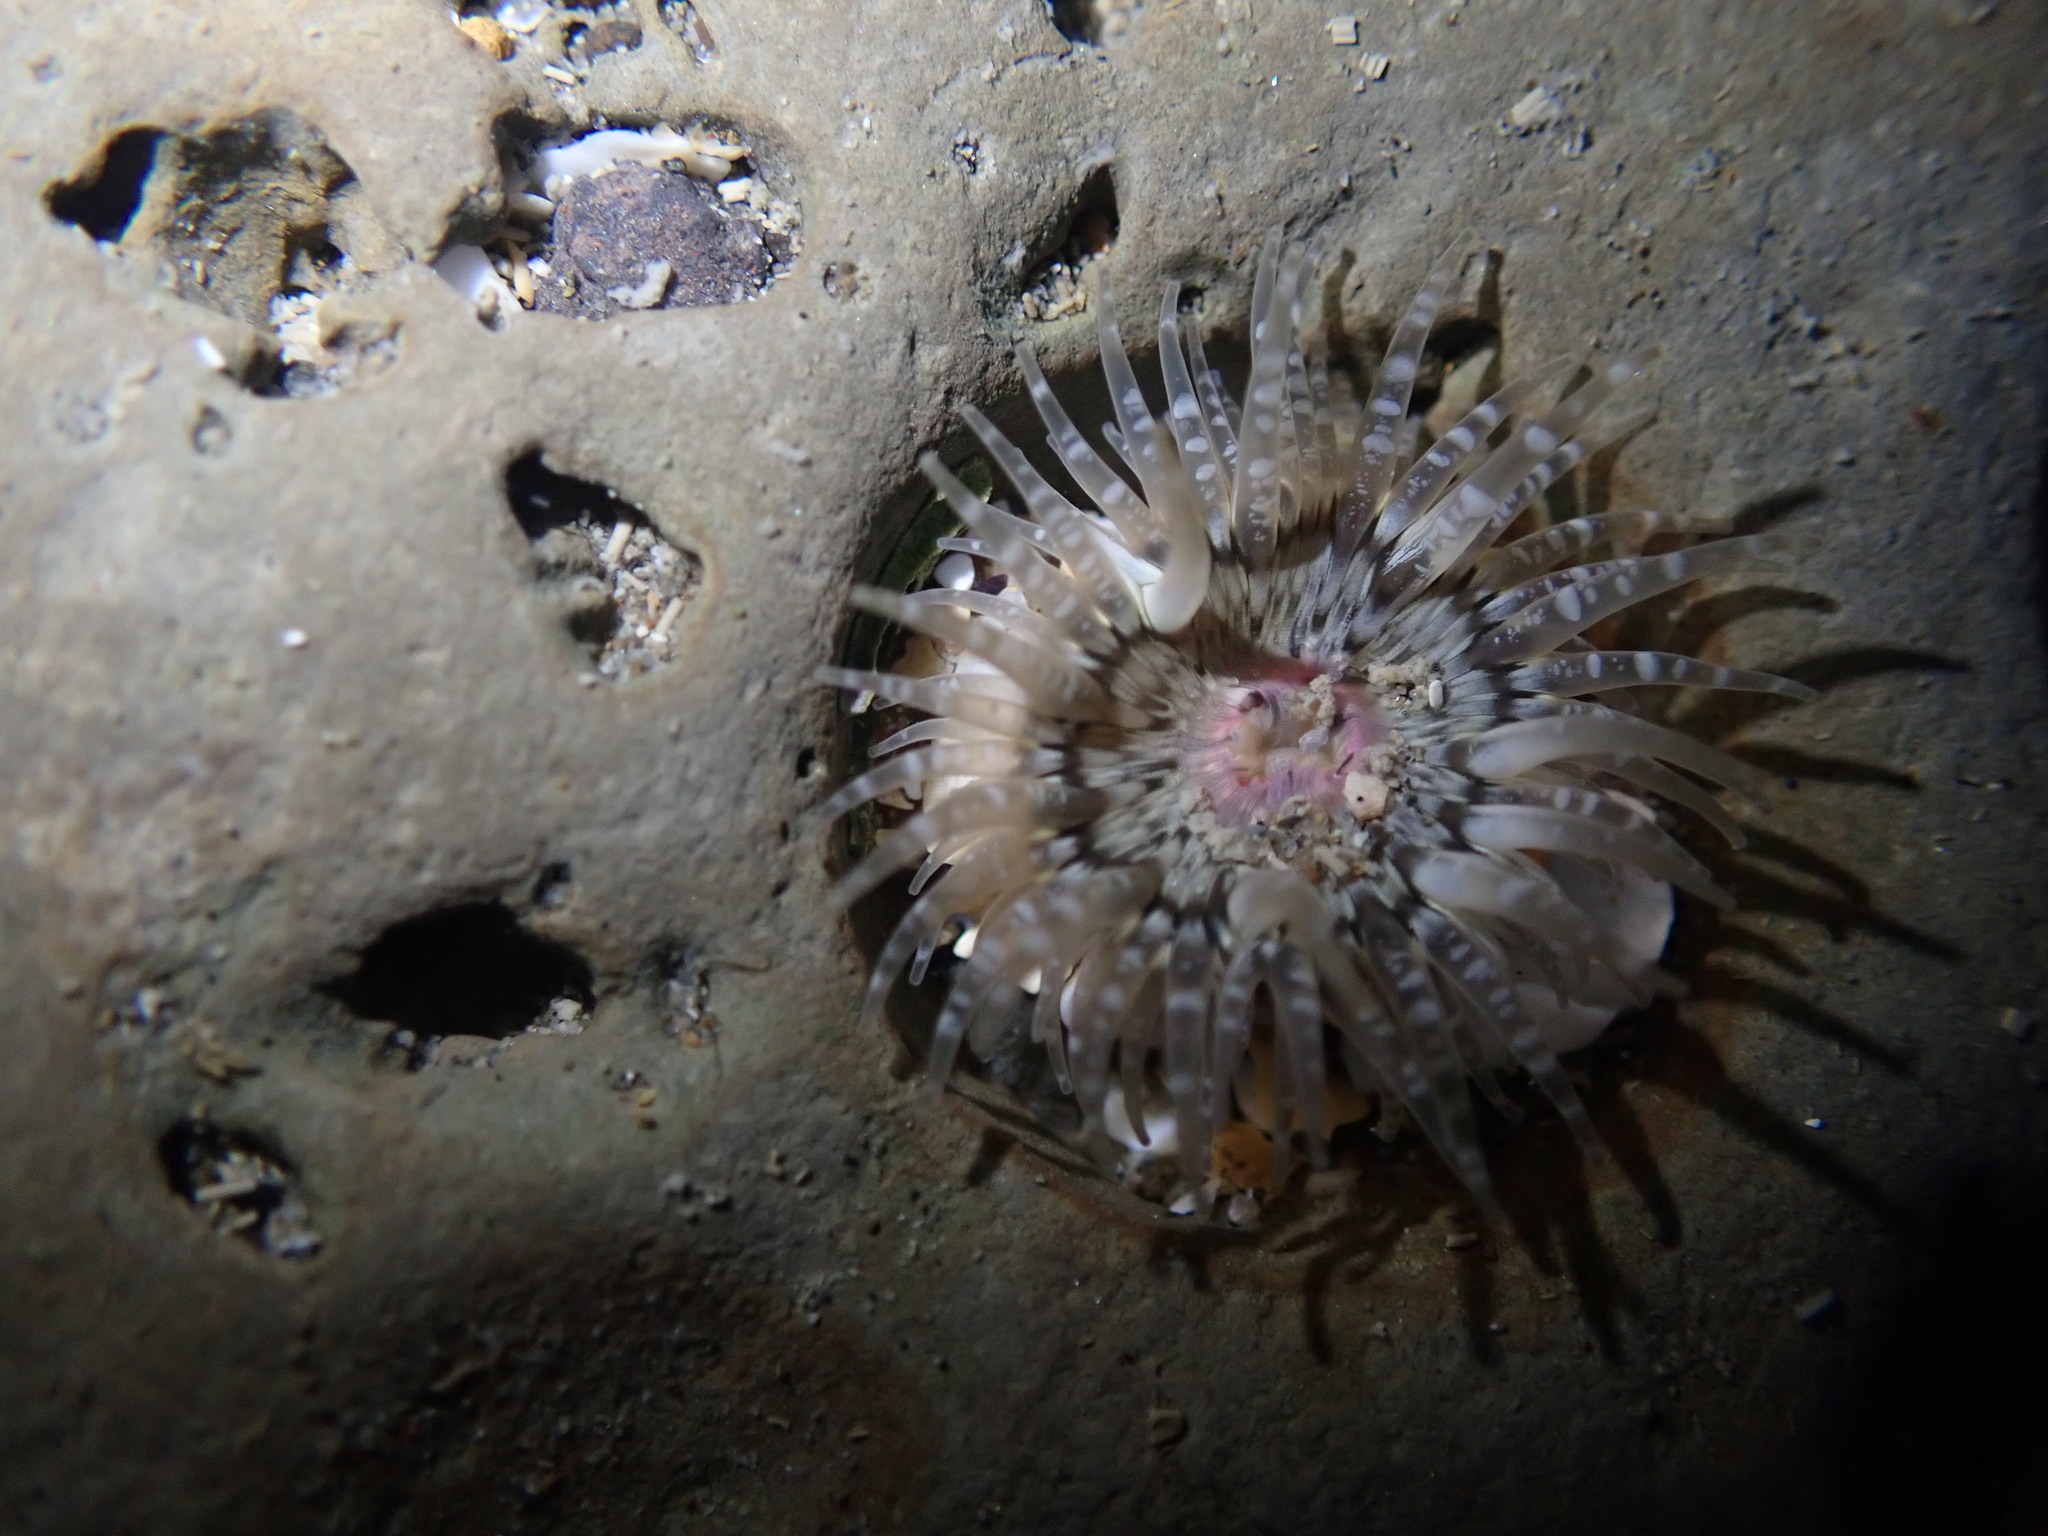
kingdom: Animalia
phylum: Cnidaria
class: Anthozoa
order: Actiniaria
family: Actiniidae
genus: Anthopleura
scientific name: Anthopleura minima
